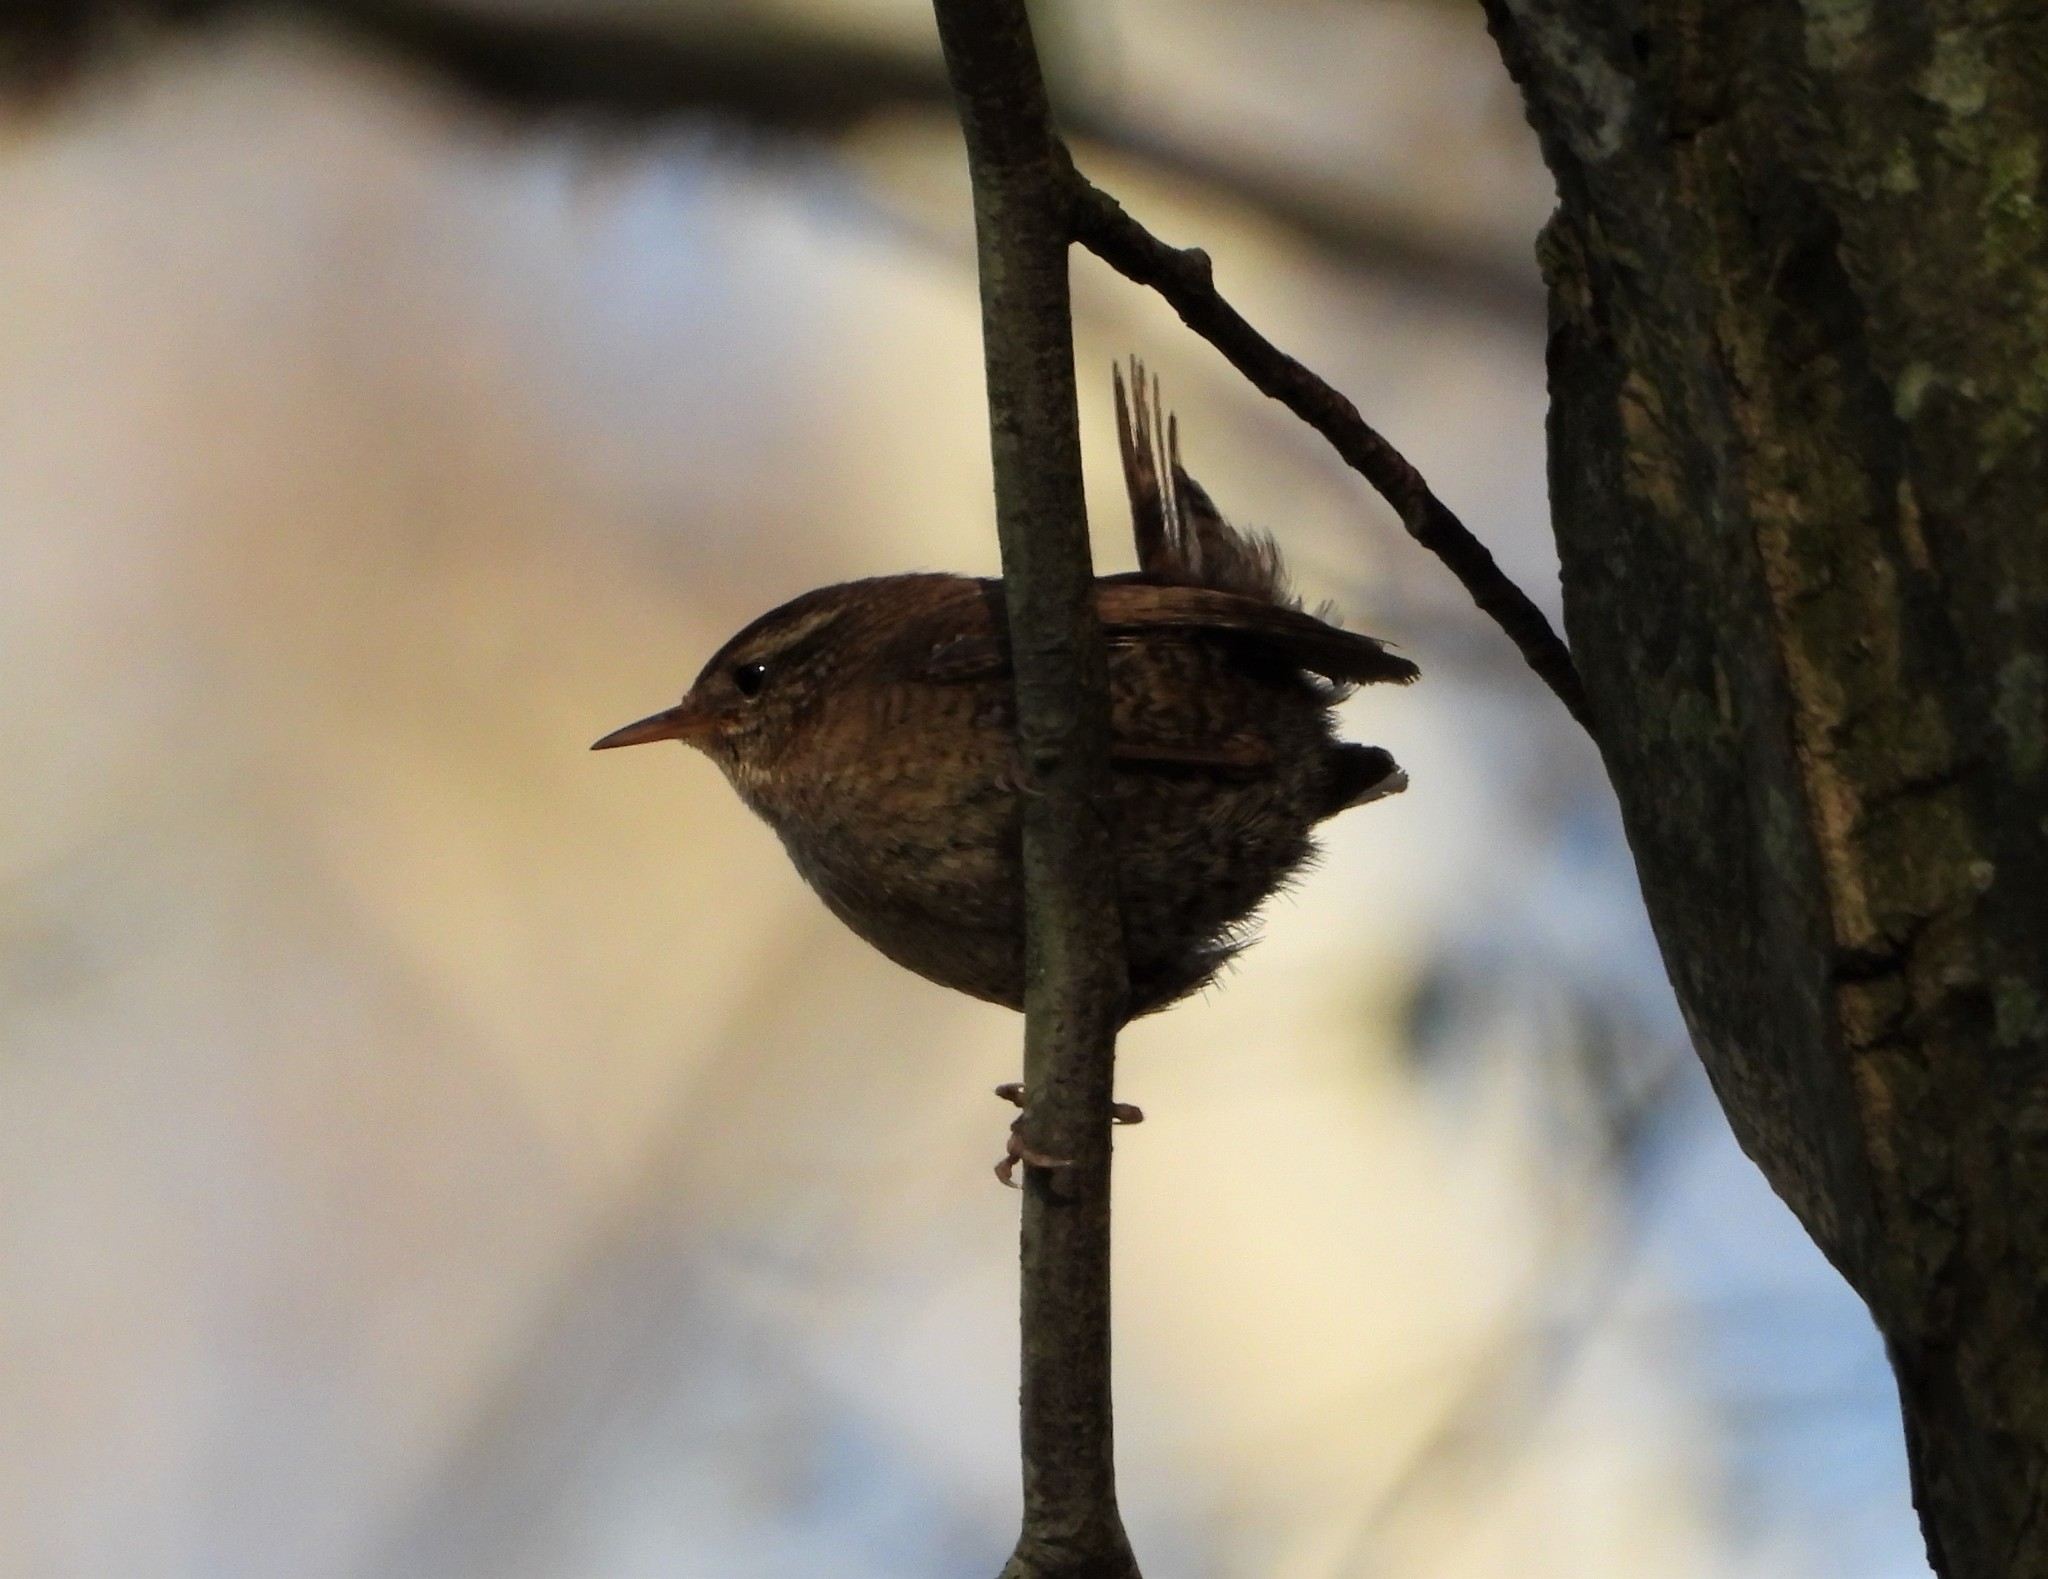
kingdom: Animalia
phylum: Chordata
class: Aves
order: Passeriformes
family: Troglodytidae
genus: Troglodytes
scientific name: Troglodytes troglodytes
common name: Eurasian wren
